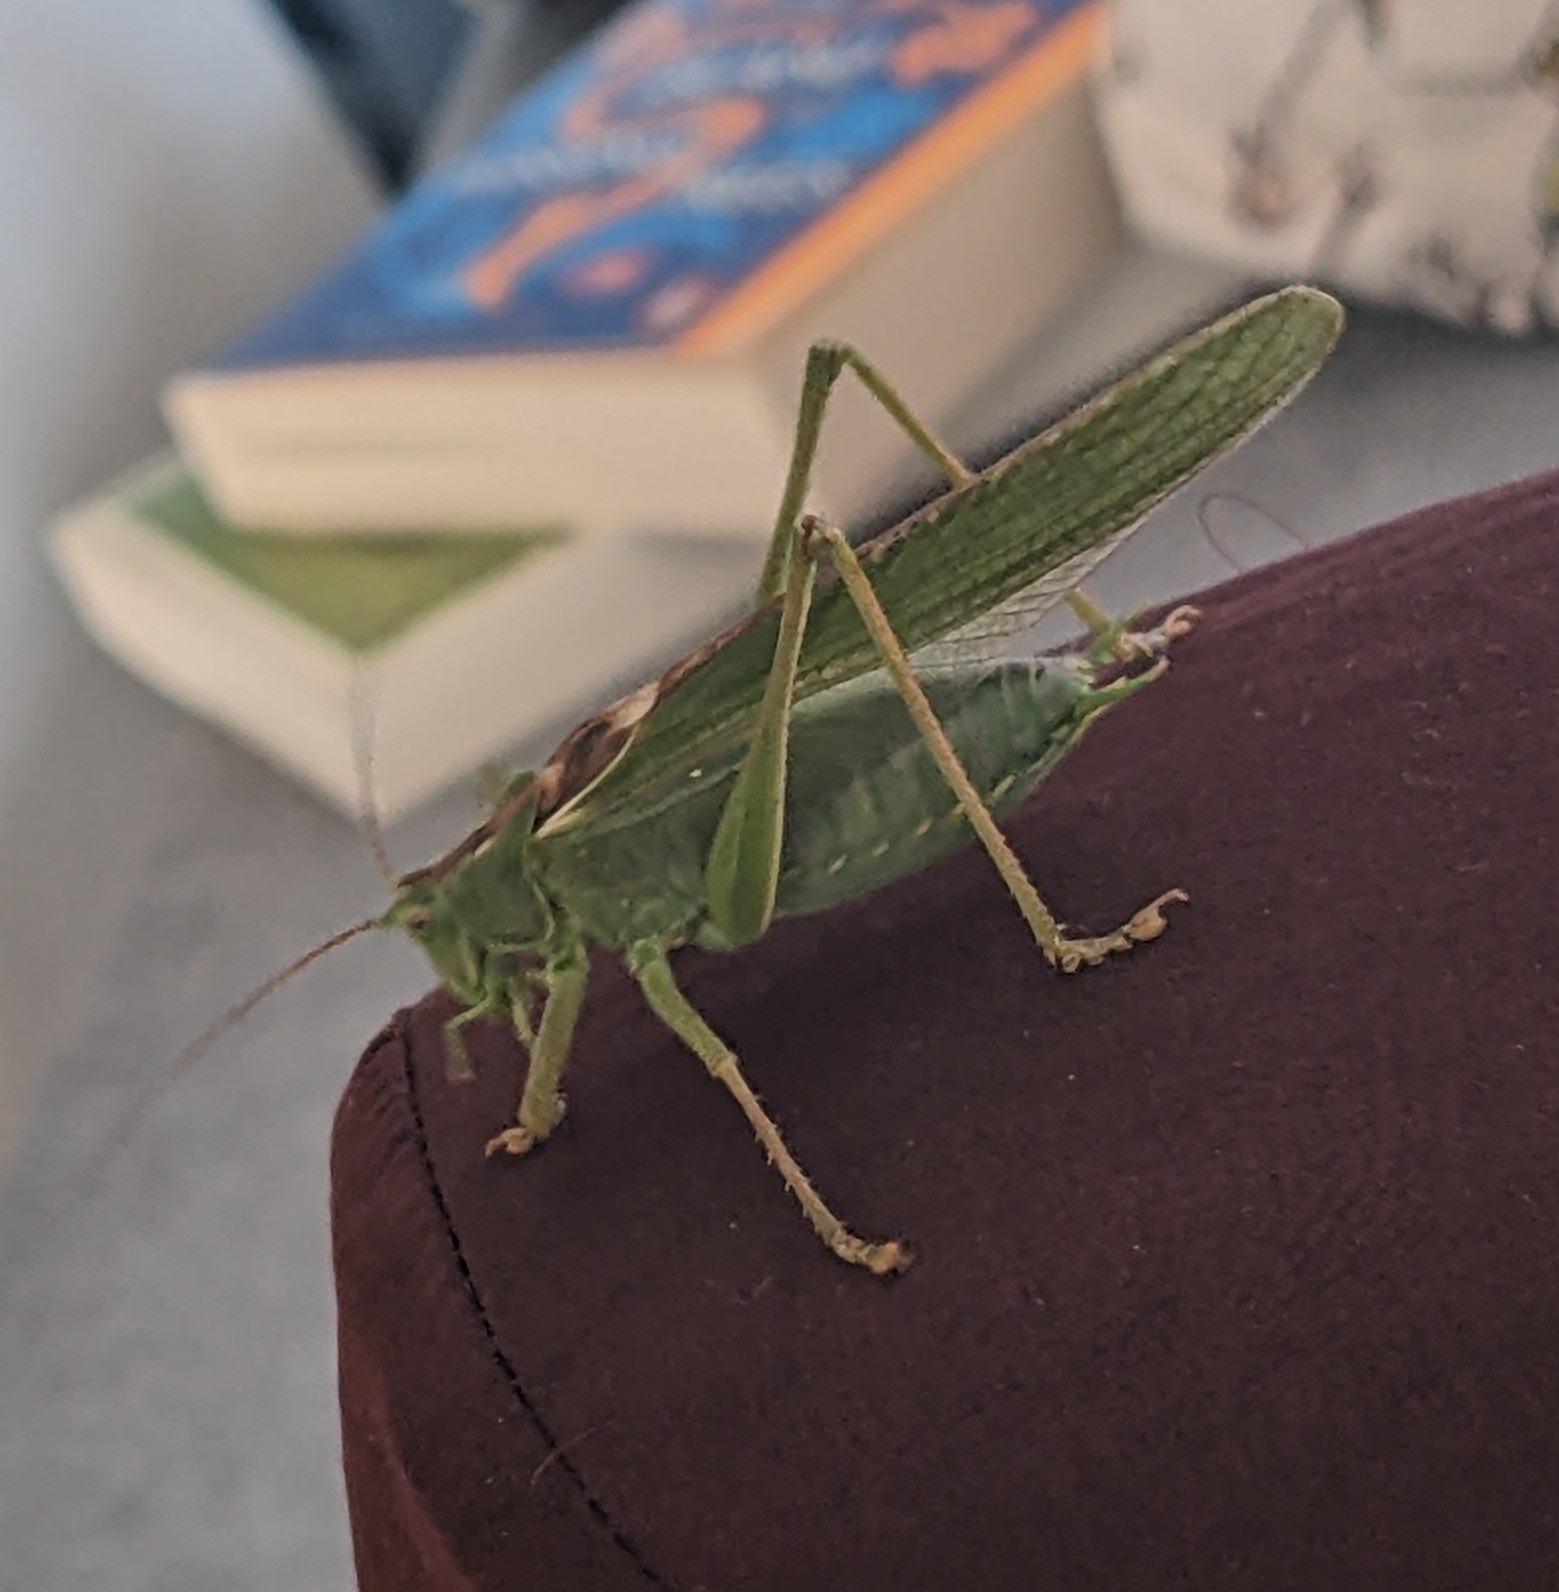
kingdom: Animalia
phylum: Arthropoda
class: Insecta
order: Orthoptera
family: Tettigoniidae
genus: Tettigonia
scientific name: Tettigonia viridissima
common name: Great green bush-cricket
